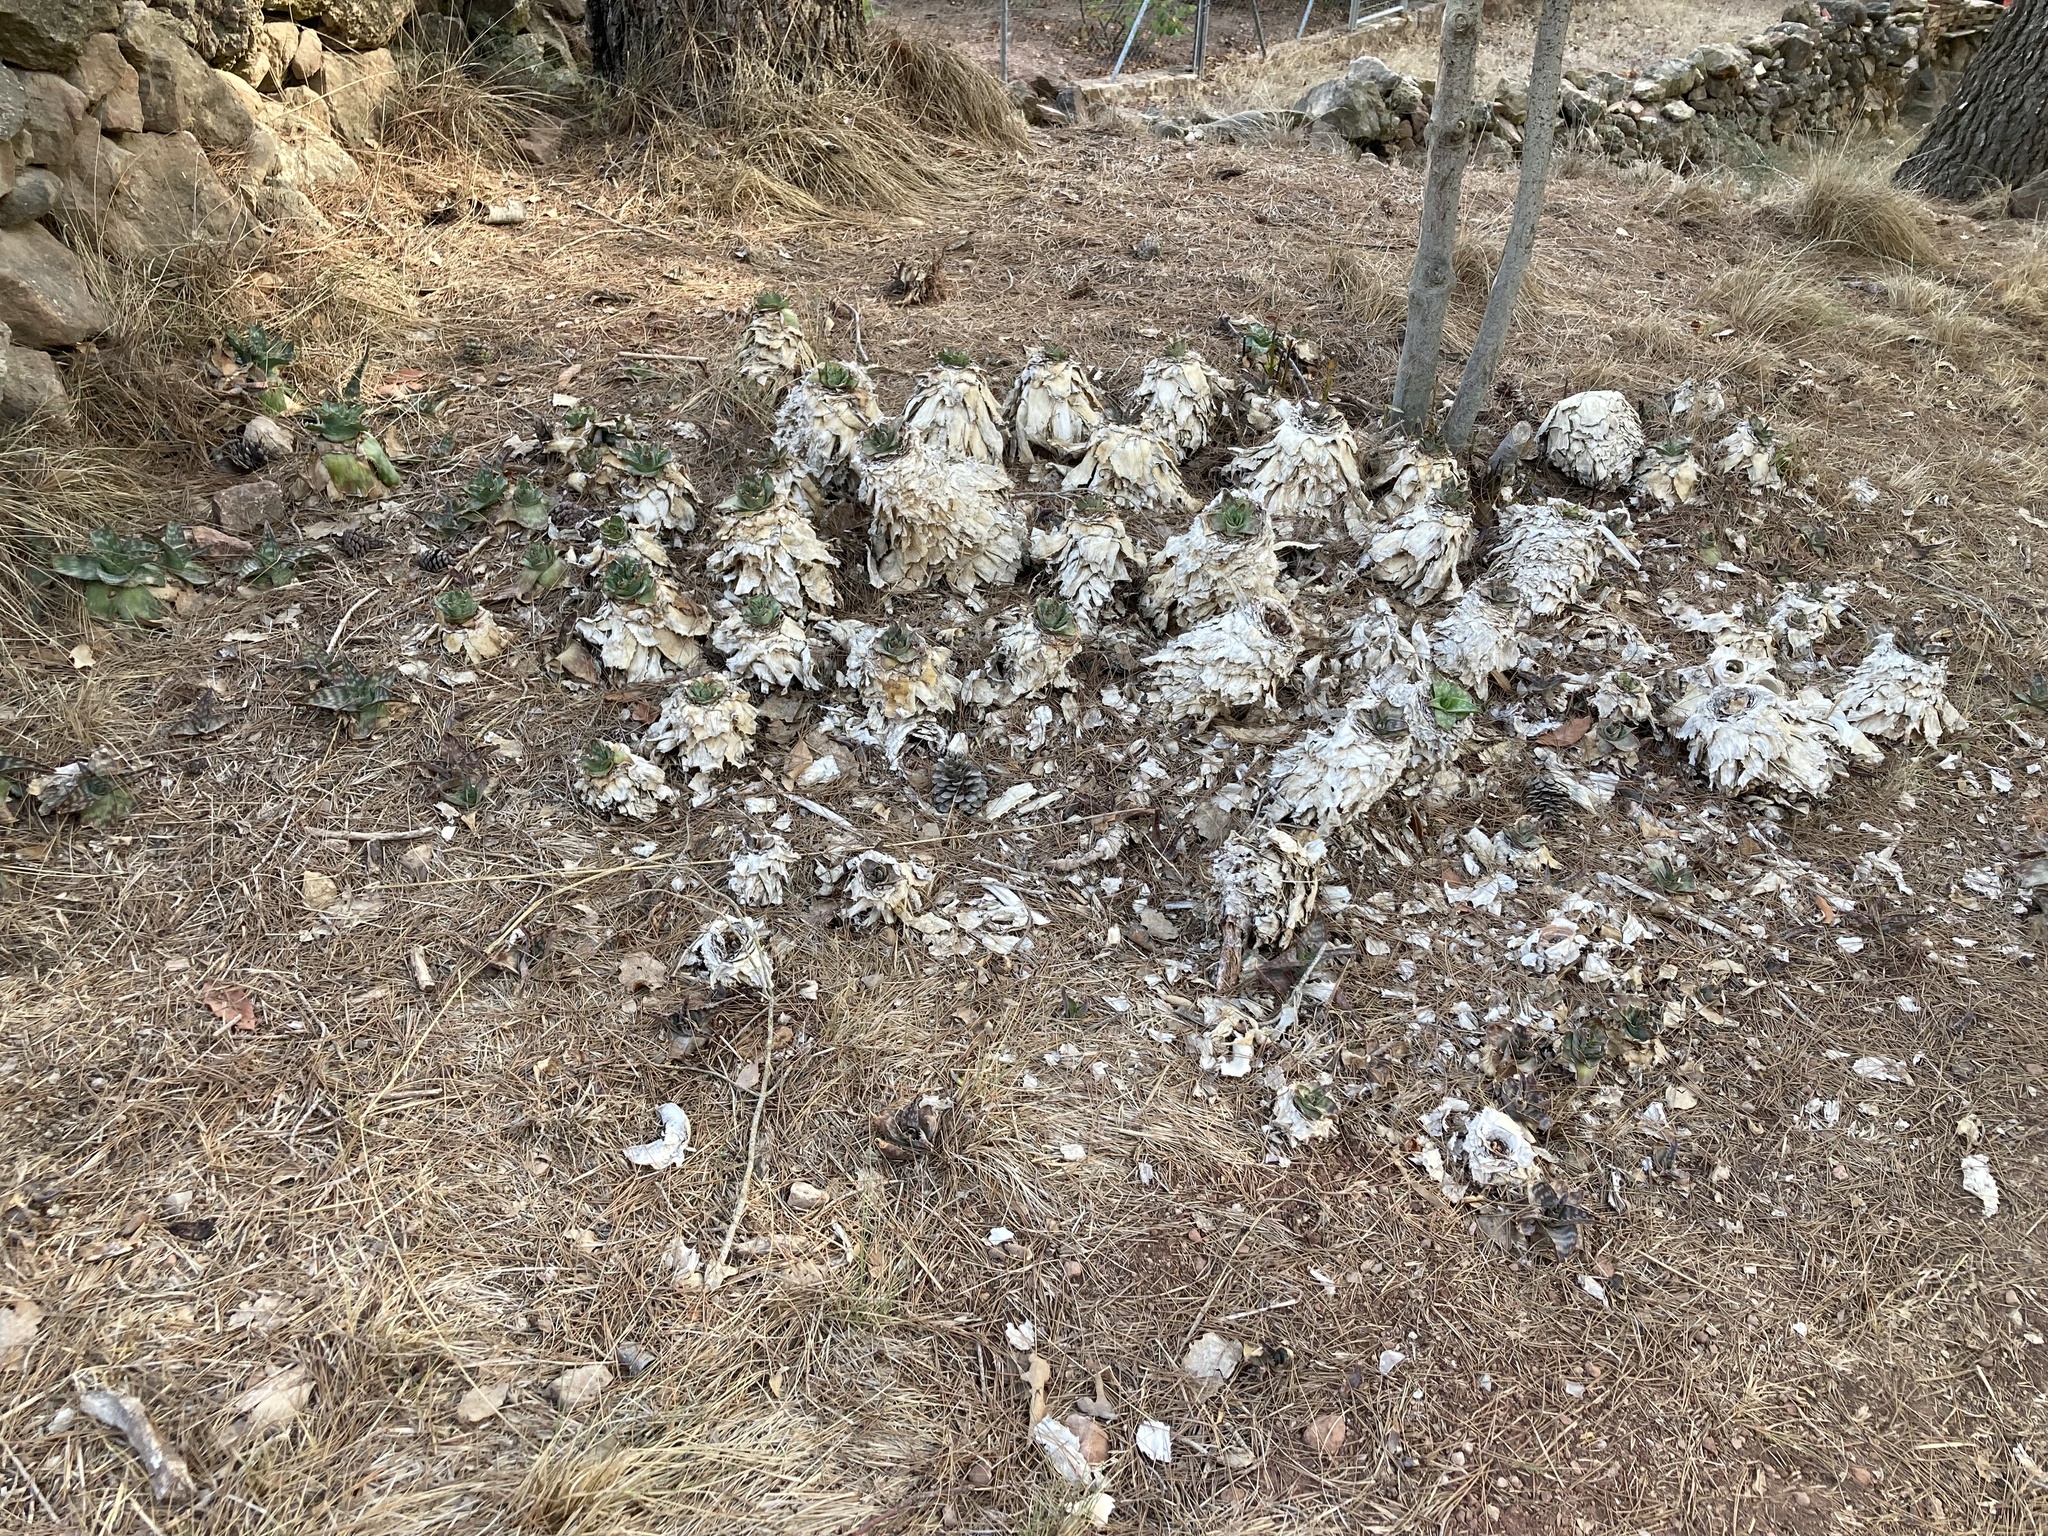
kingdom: Plantae
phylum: Tracheophyta
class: Liliopsida
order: Asparagales
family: Asphodelaceae
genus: Aloe
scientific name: Aloe maculata
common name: Broadleaf aloe
